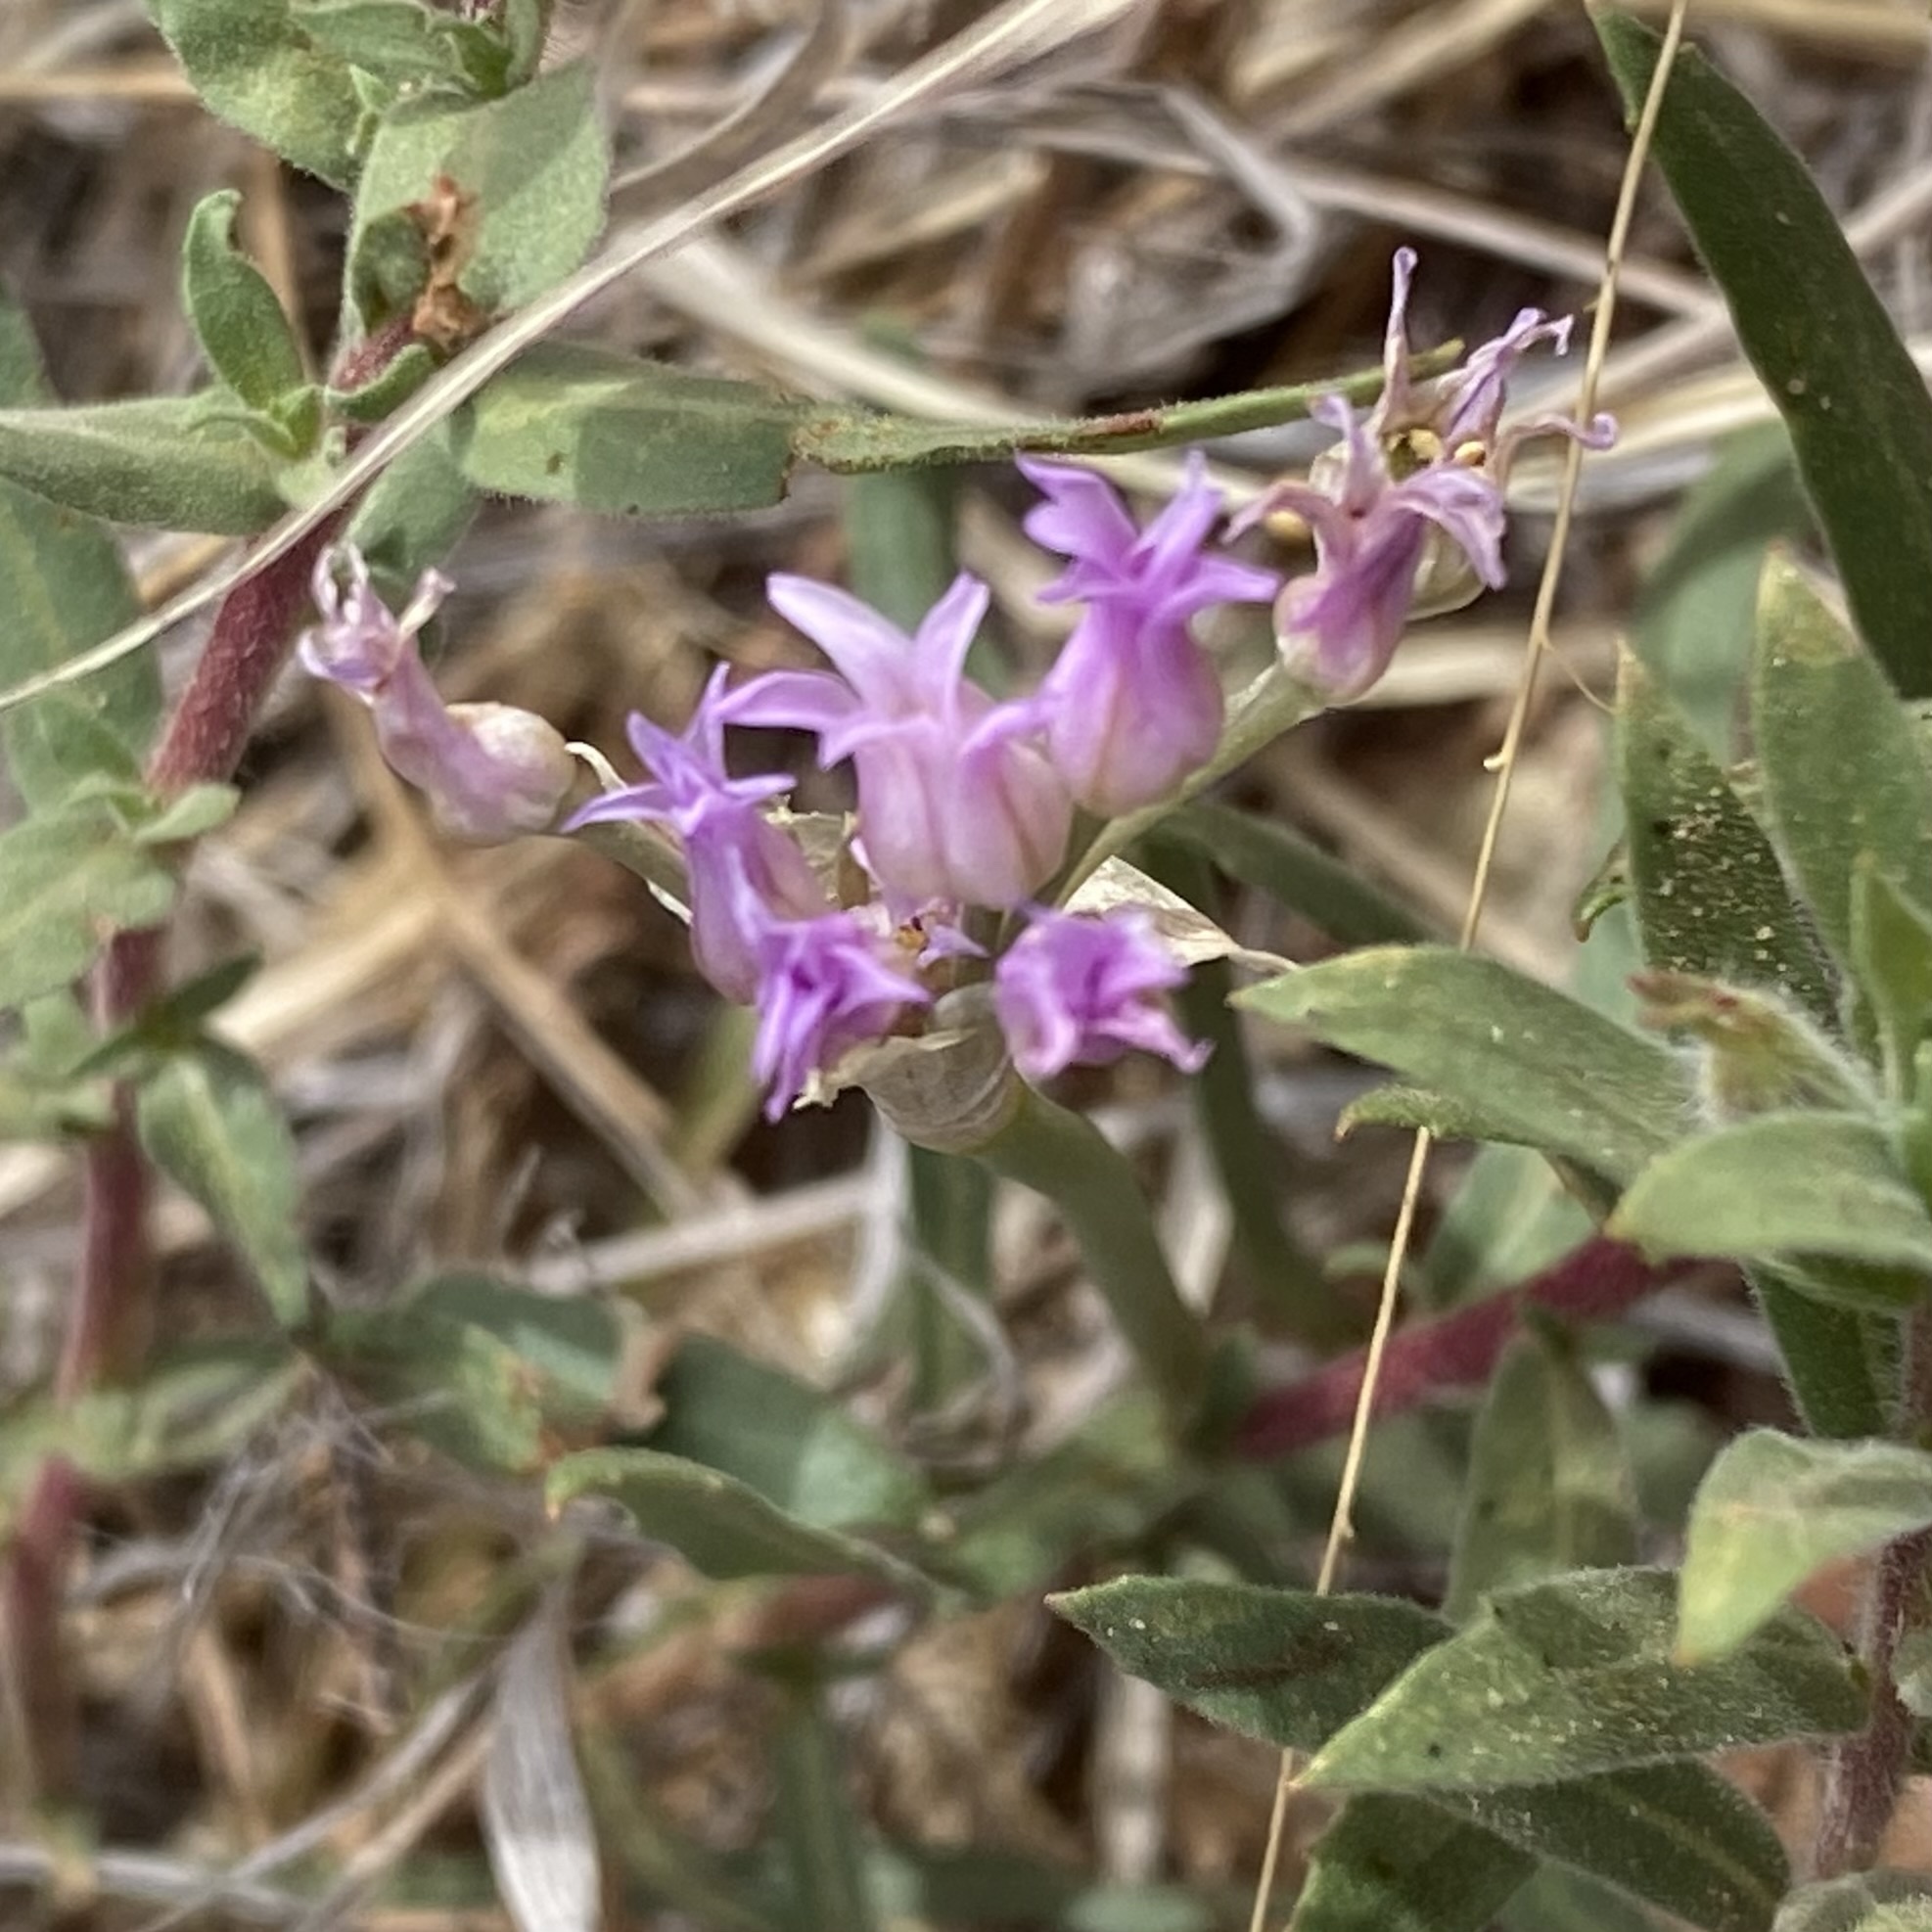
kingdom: Plantae
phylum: Tracheophyta
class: Liliopsida
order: Asparagales
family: Amaryllidaceae
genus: Allium
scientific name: Allium perdulce
